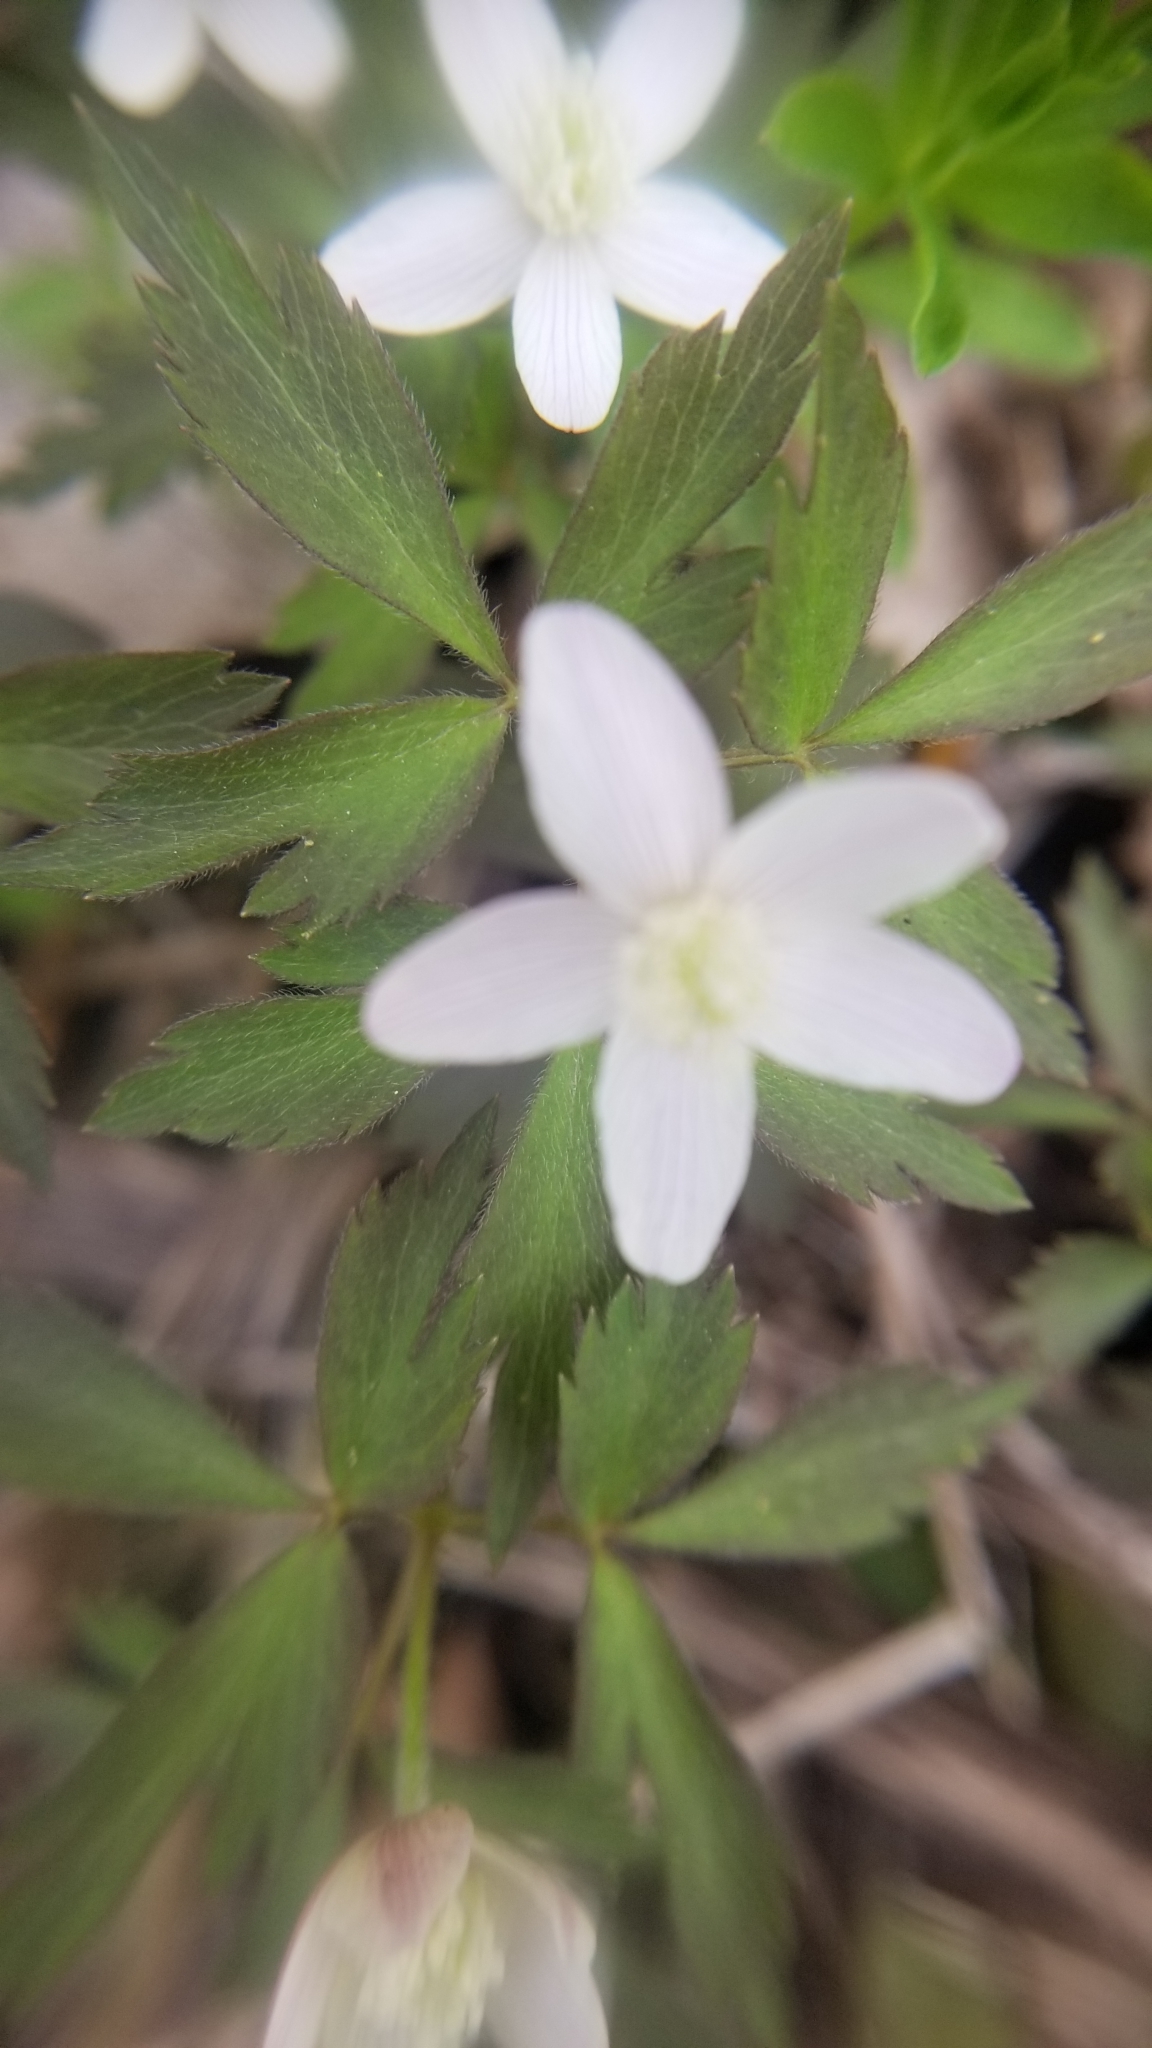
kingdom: Plantae
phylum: Tracheophyta
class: Magnoliopsida
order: Ranunculales
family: Ranunculaceae
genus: Anemone
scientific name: Anemone quinquefolia
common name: Wood anemone
